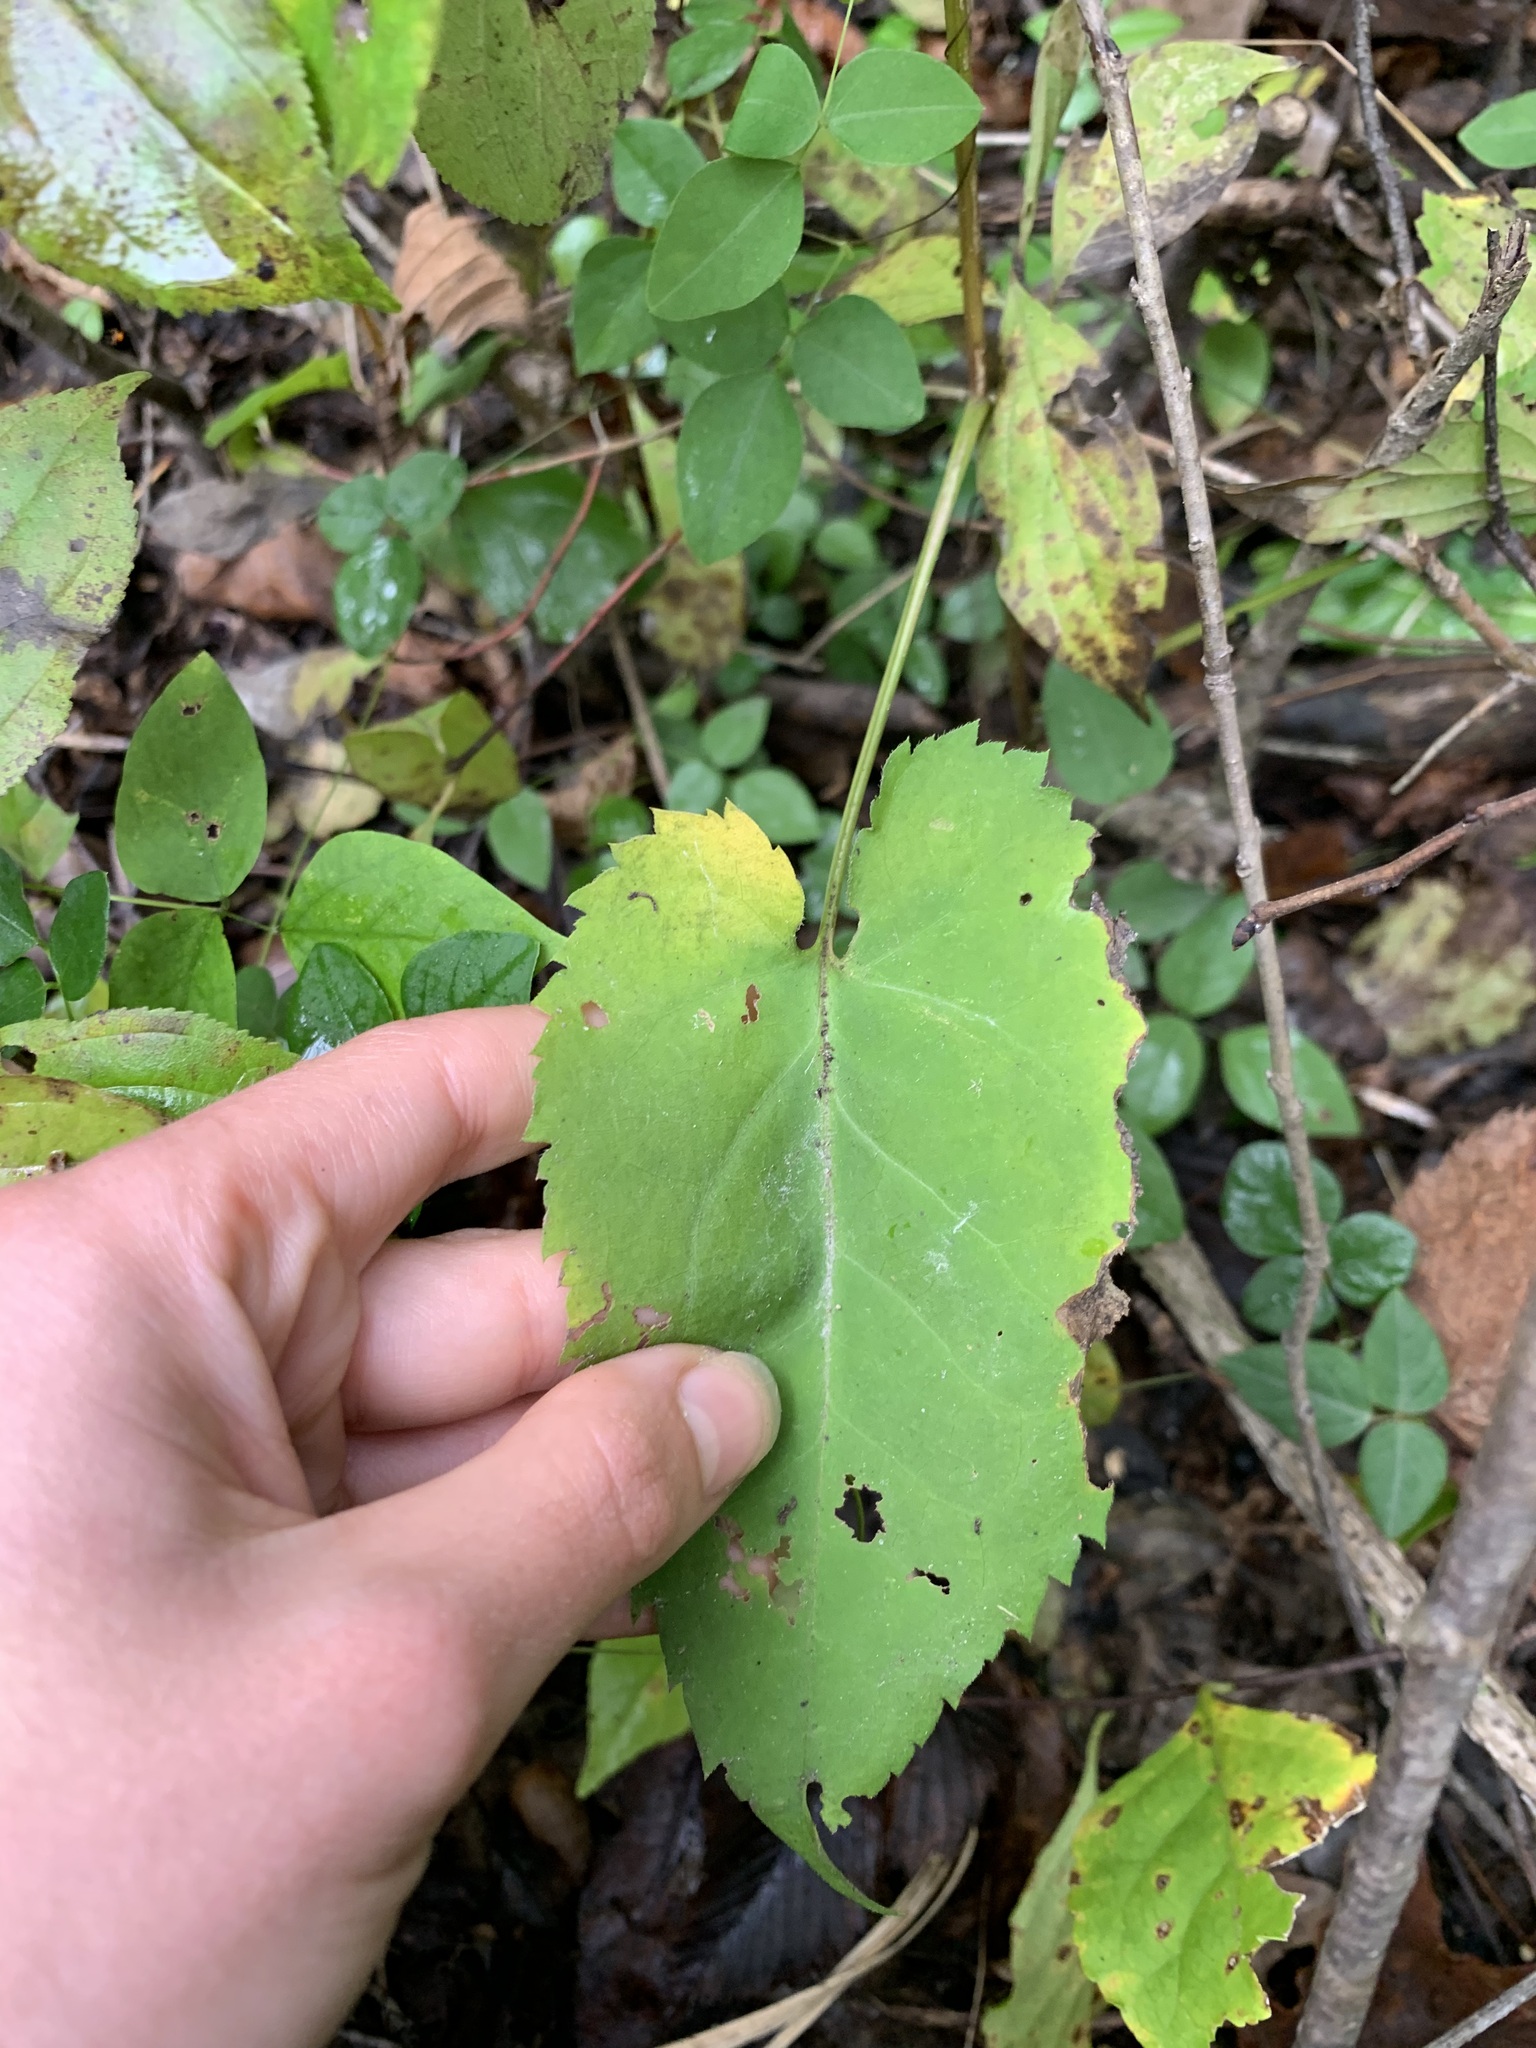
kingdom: Plantae
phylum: Tracheophyta
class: Magnoliopsida
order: Asterales
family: Asteraceae
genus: Symphyotrichum
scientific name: Symphyotrichum cordifolium
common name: Beeweed
